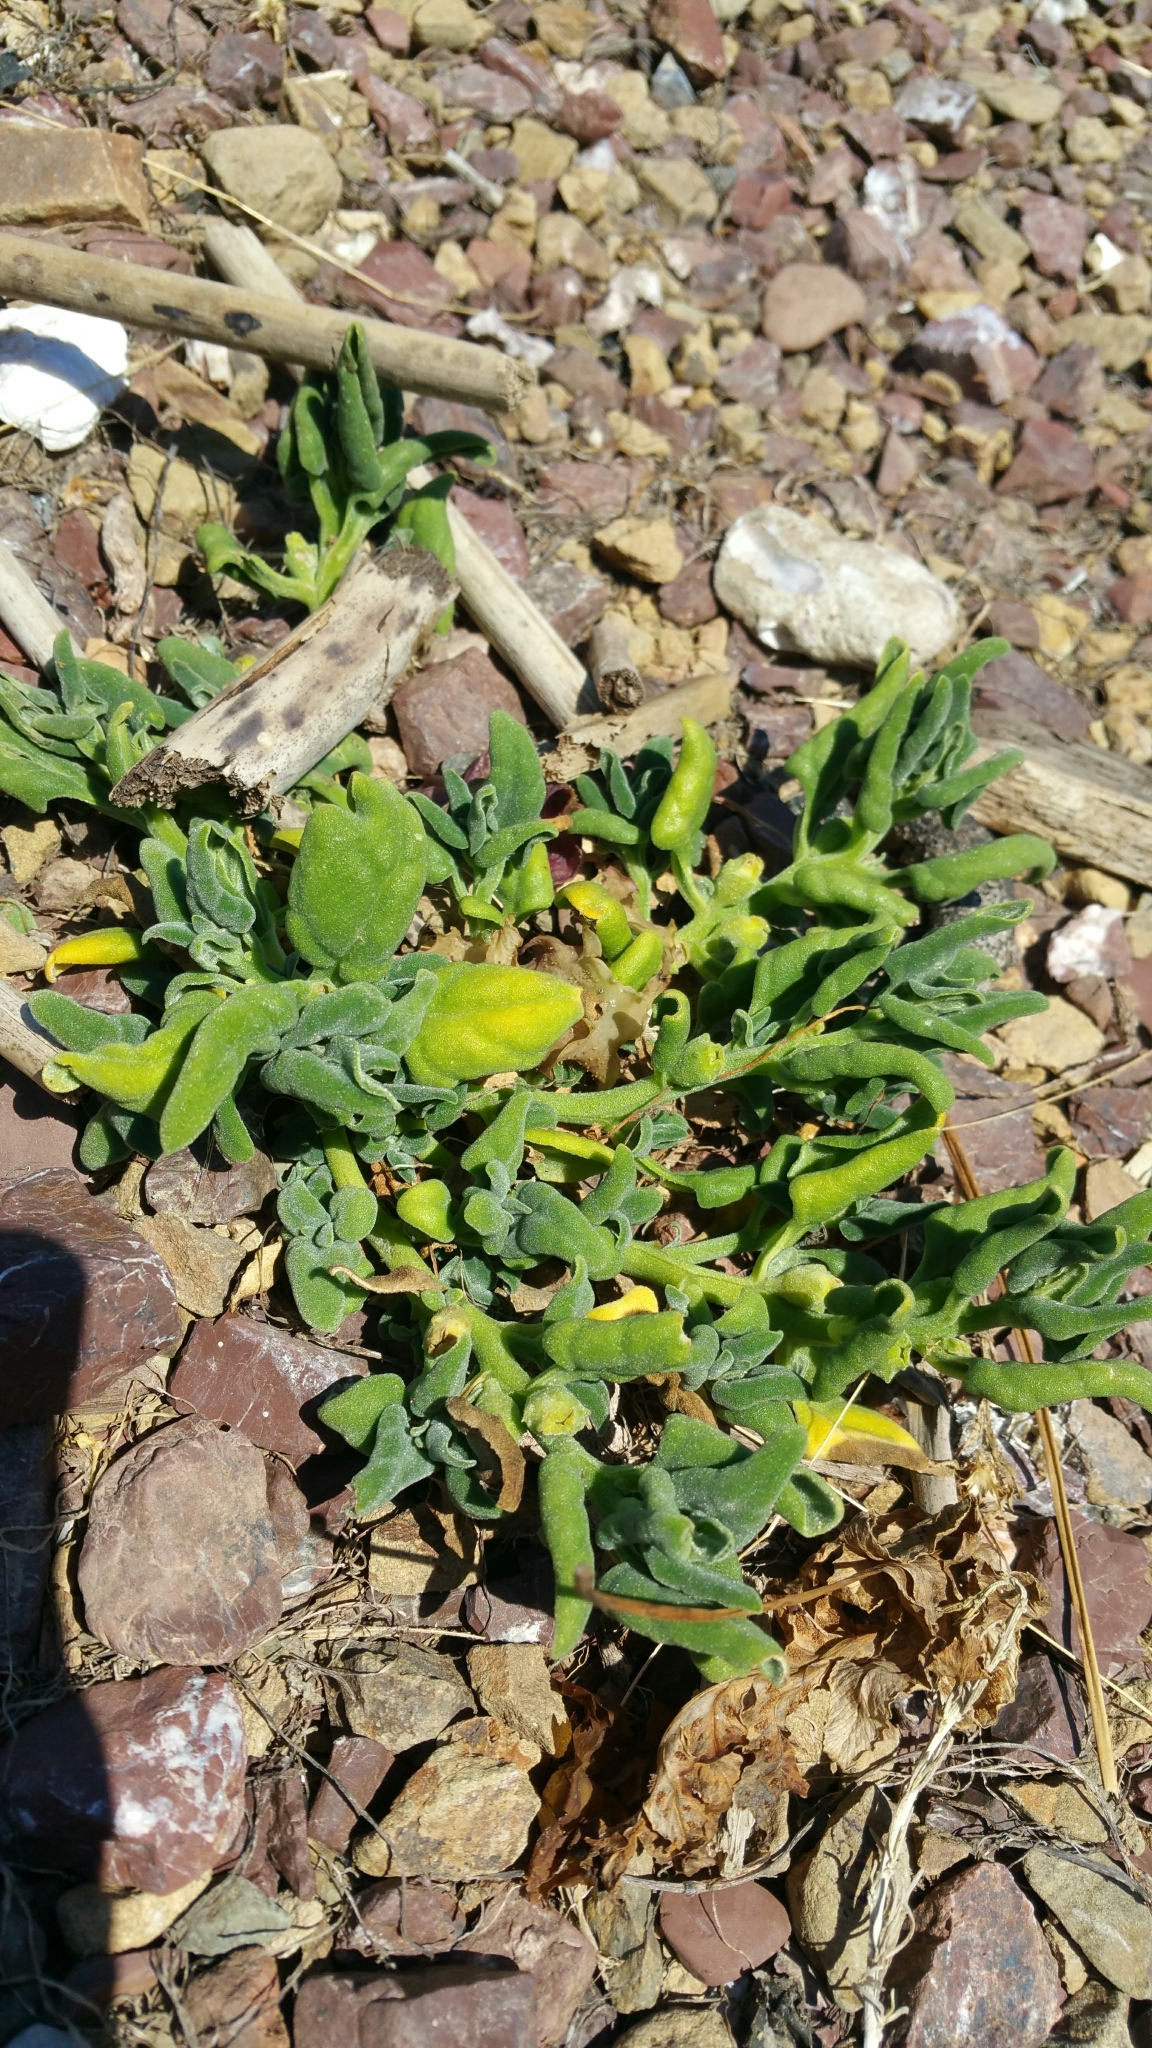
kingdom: Plantae
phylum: Tracheophyta
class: Magnoliopsida
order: Caryophyllales
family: Aizoaceae
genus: Tetragonia
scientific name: Tetragonia tetragonoides
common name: New zealand-spinach
